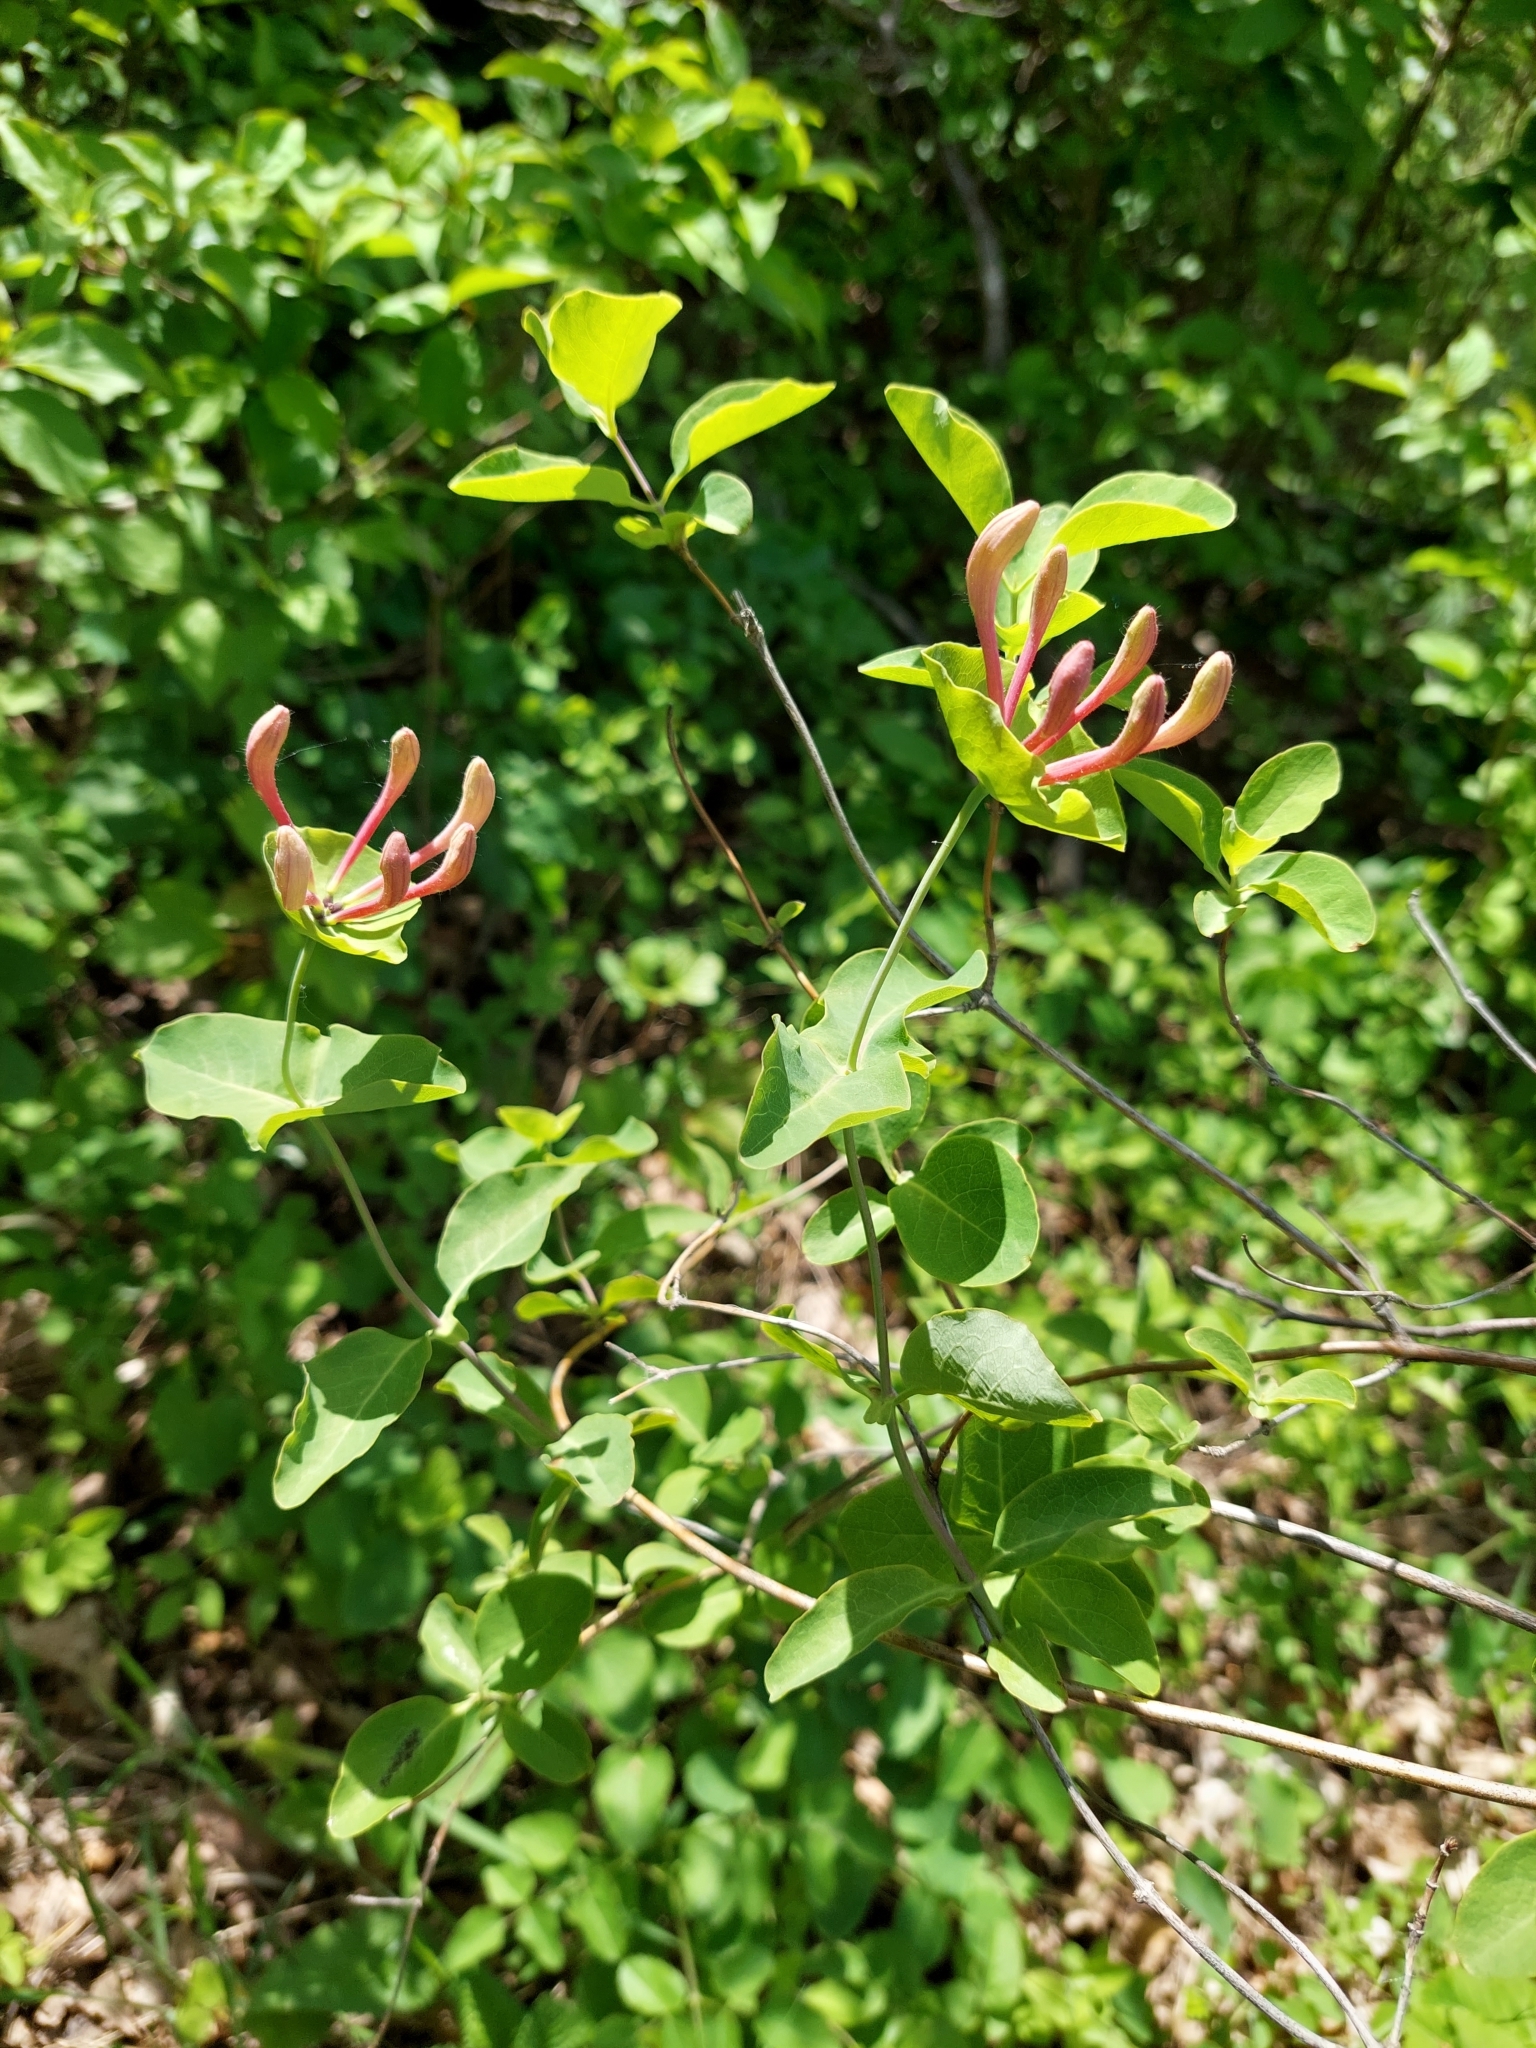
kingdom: Plantae
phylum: Tracheophyta
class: Magnoliopsida
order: Dipsacales
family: Caprifoliaceae
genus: Lonicera
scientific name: Lonicera caprifolium
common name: Perfoliate honeysuckle
